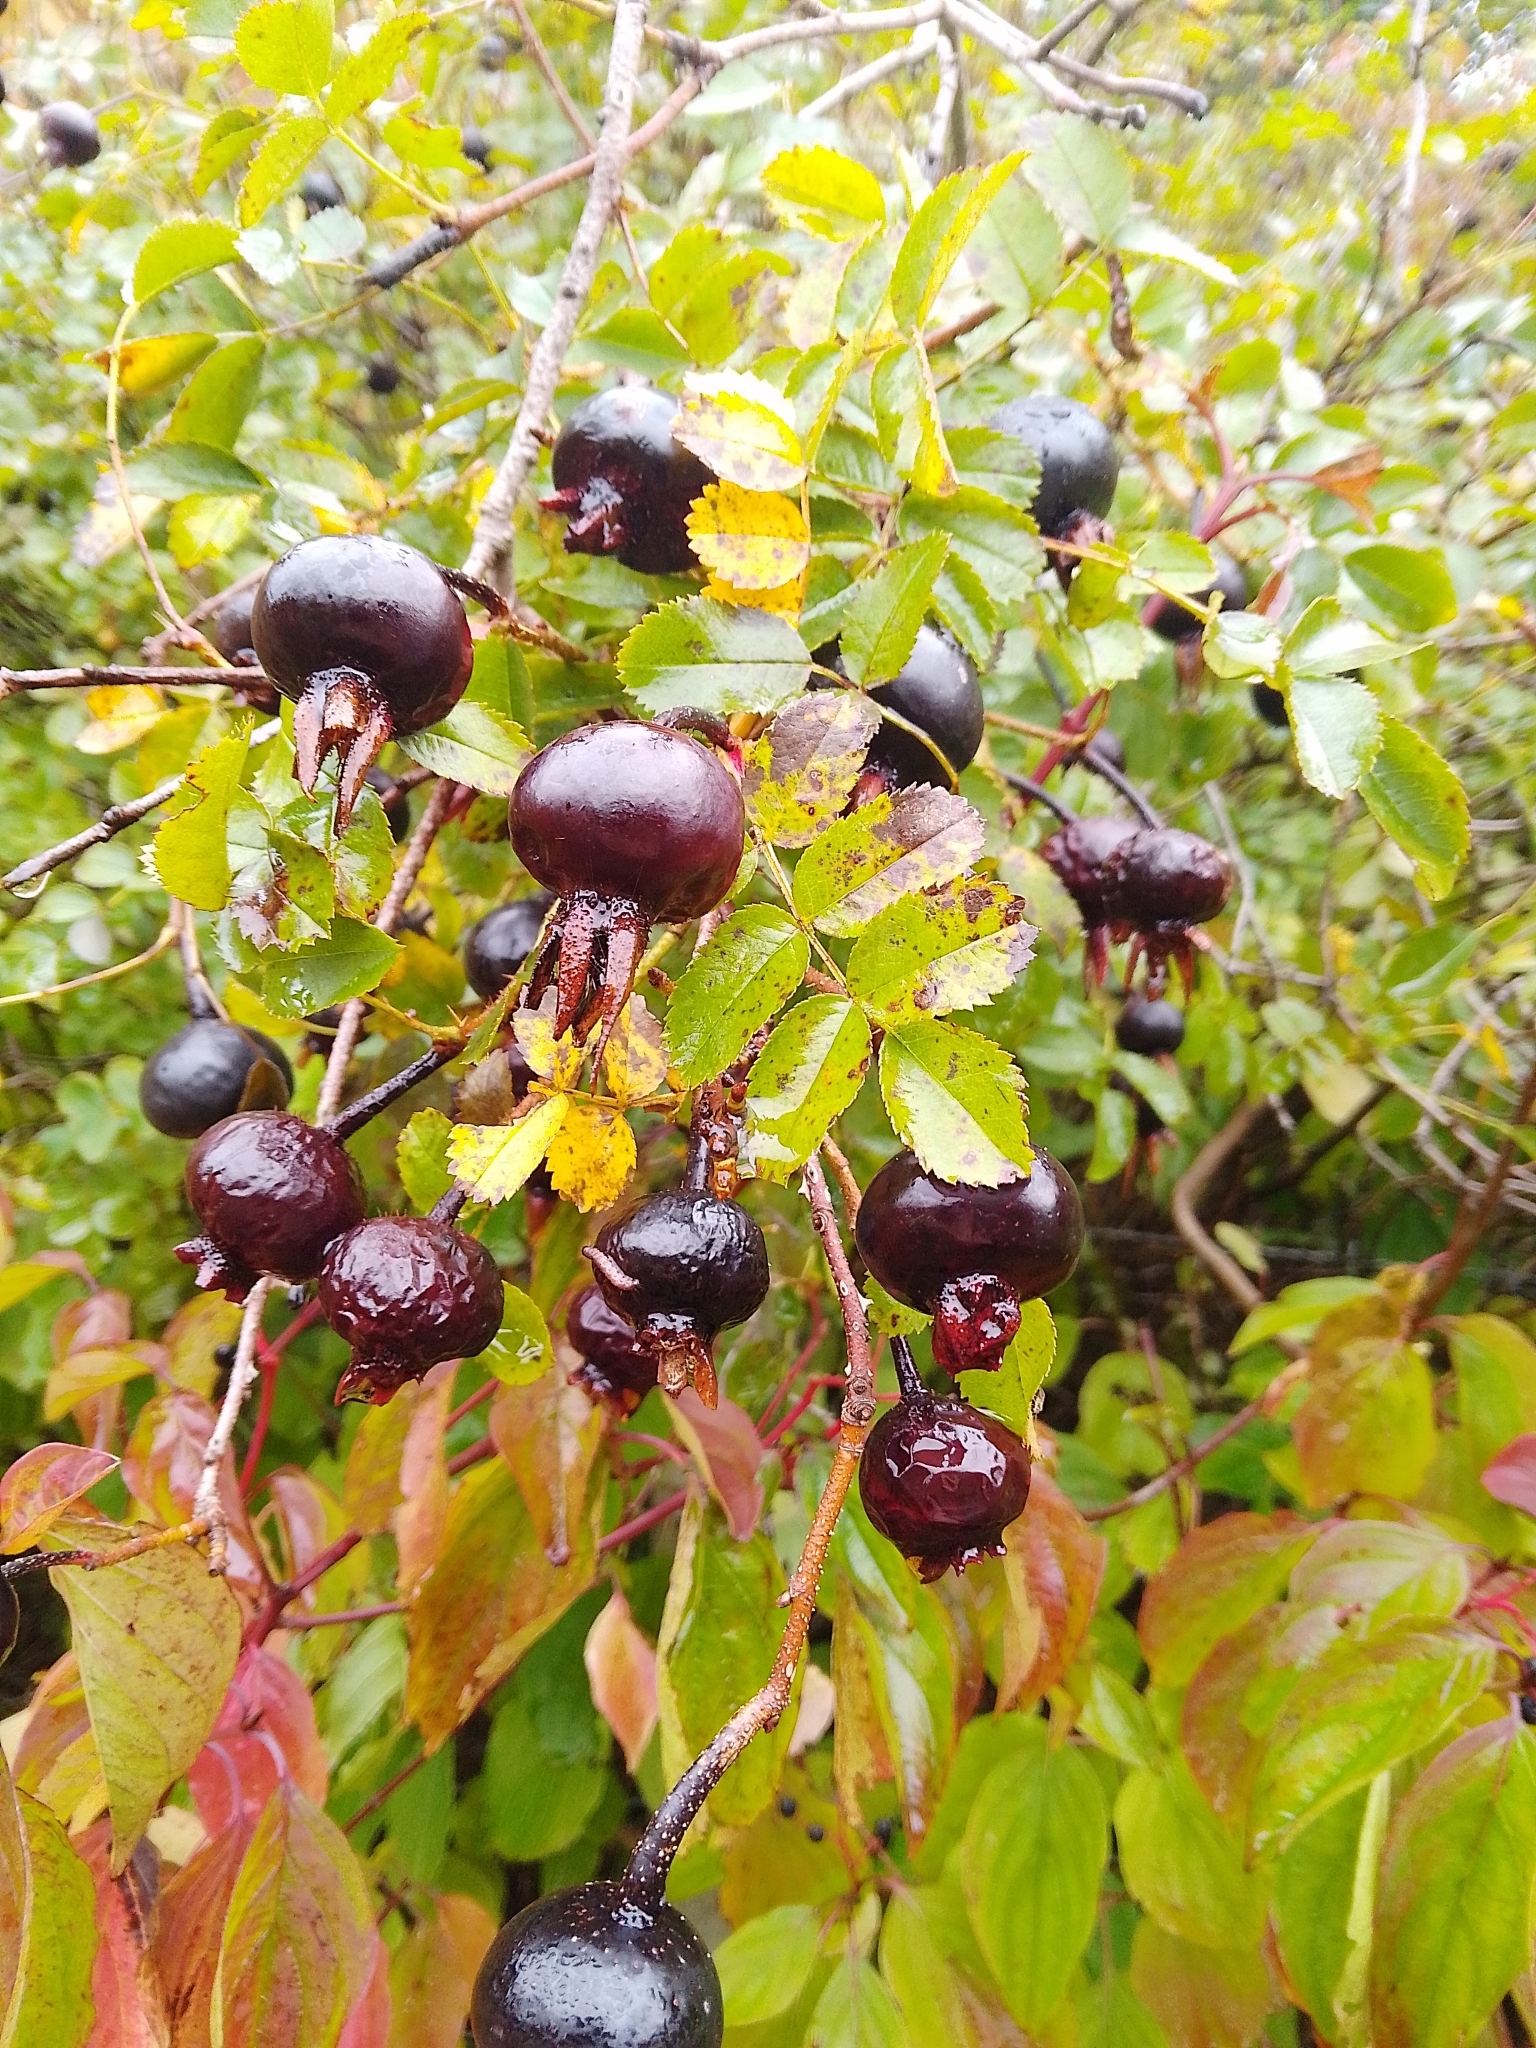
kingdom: Plantae
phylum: Tracheophyta
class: Magnoliopsida
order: Rosales
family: Rosaceae
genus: Rosa
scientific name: Rosa spinosissima
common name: Burnet rose
